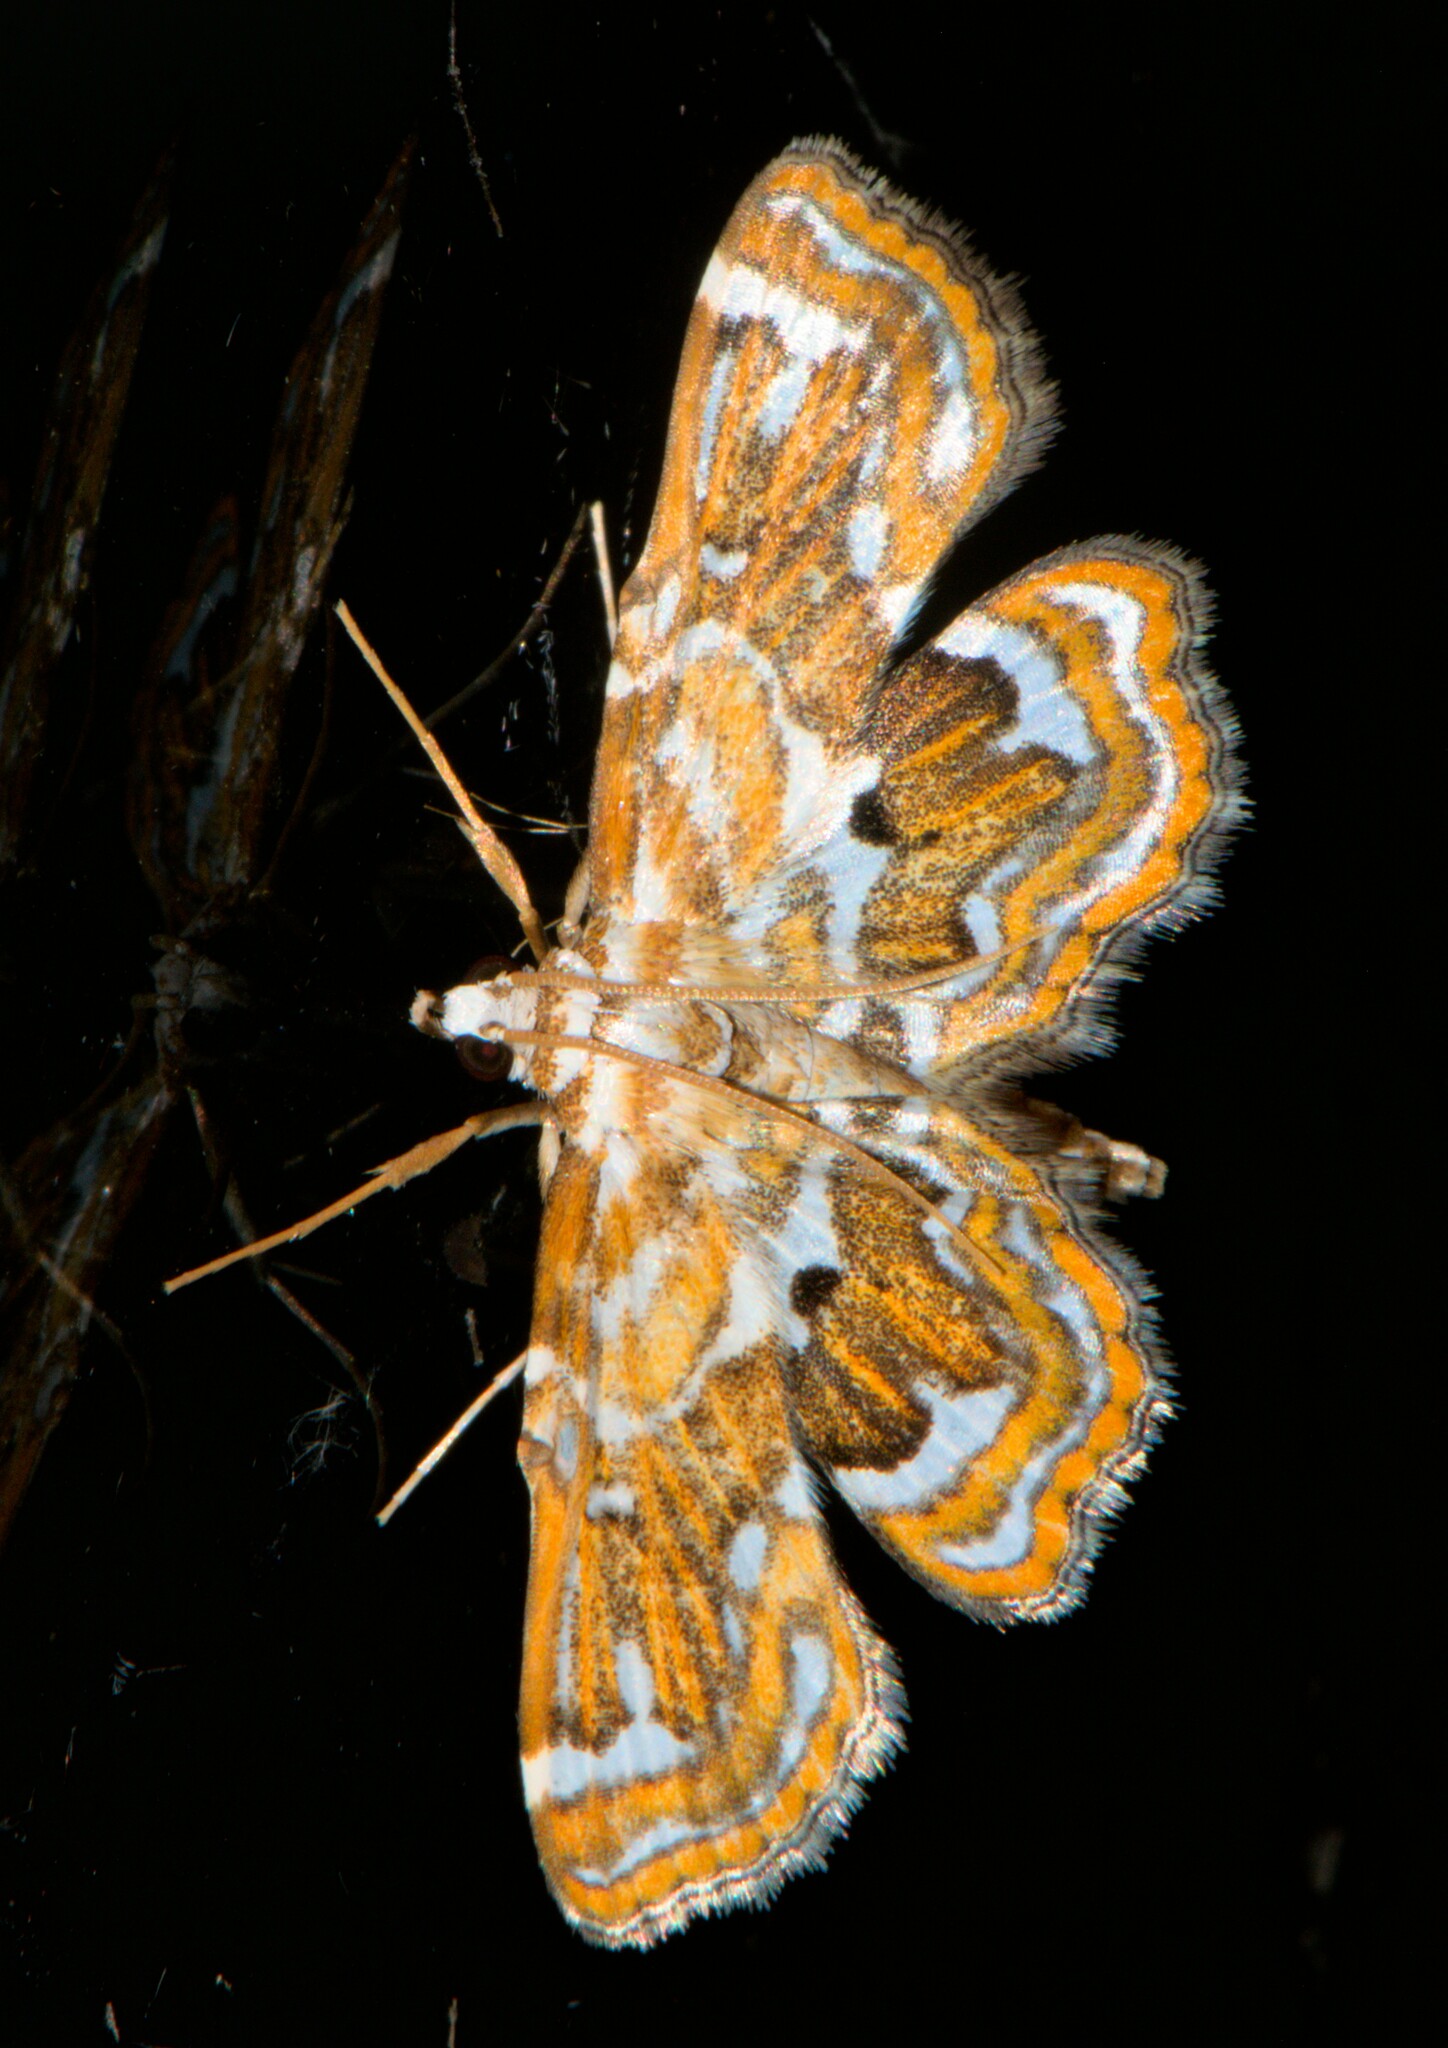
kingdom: Animalia
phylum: Arthropoda
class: Insecta
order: Lepidoptera
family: Pyralidae
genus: Cymoriza
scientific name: Cymoriza irrectalis
